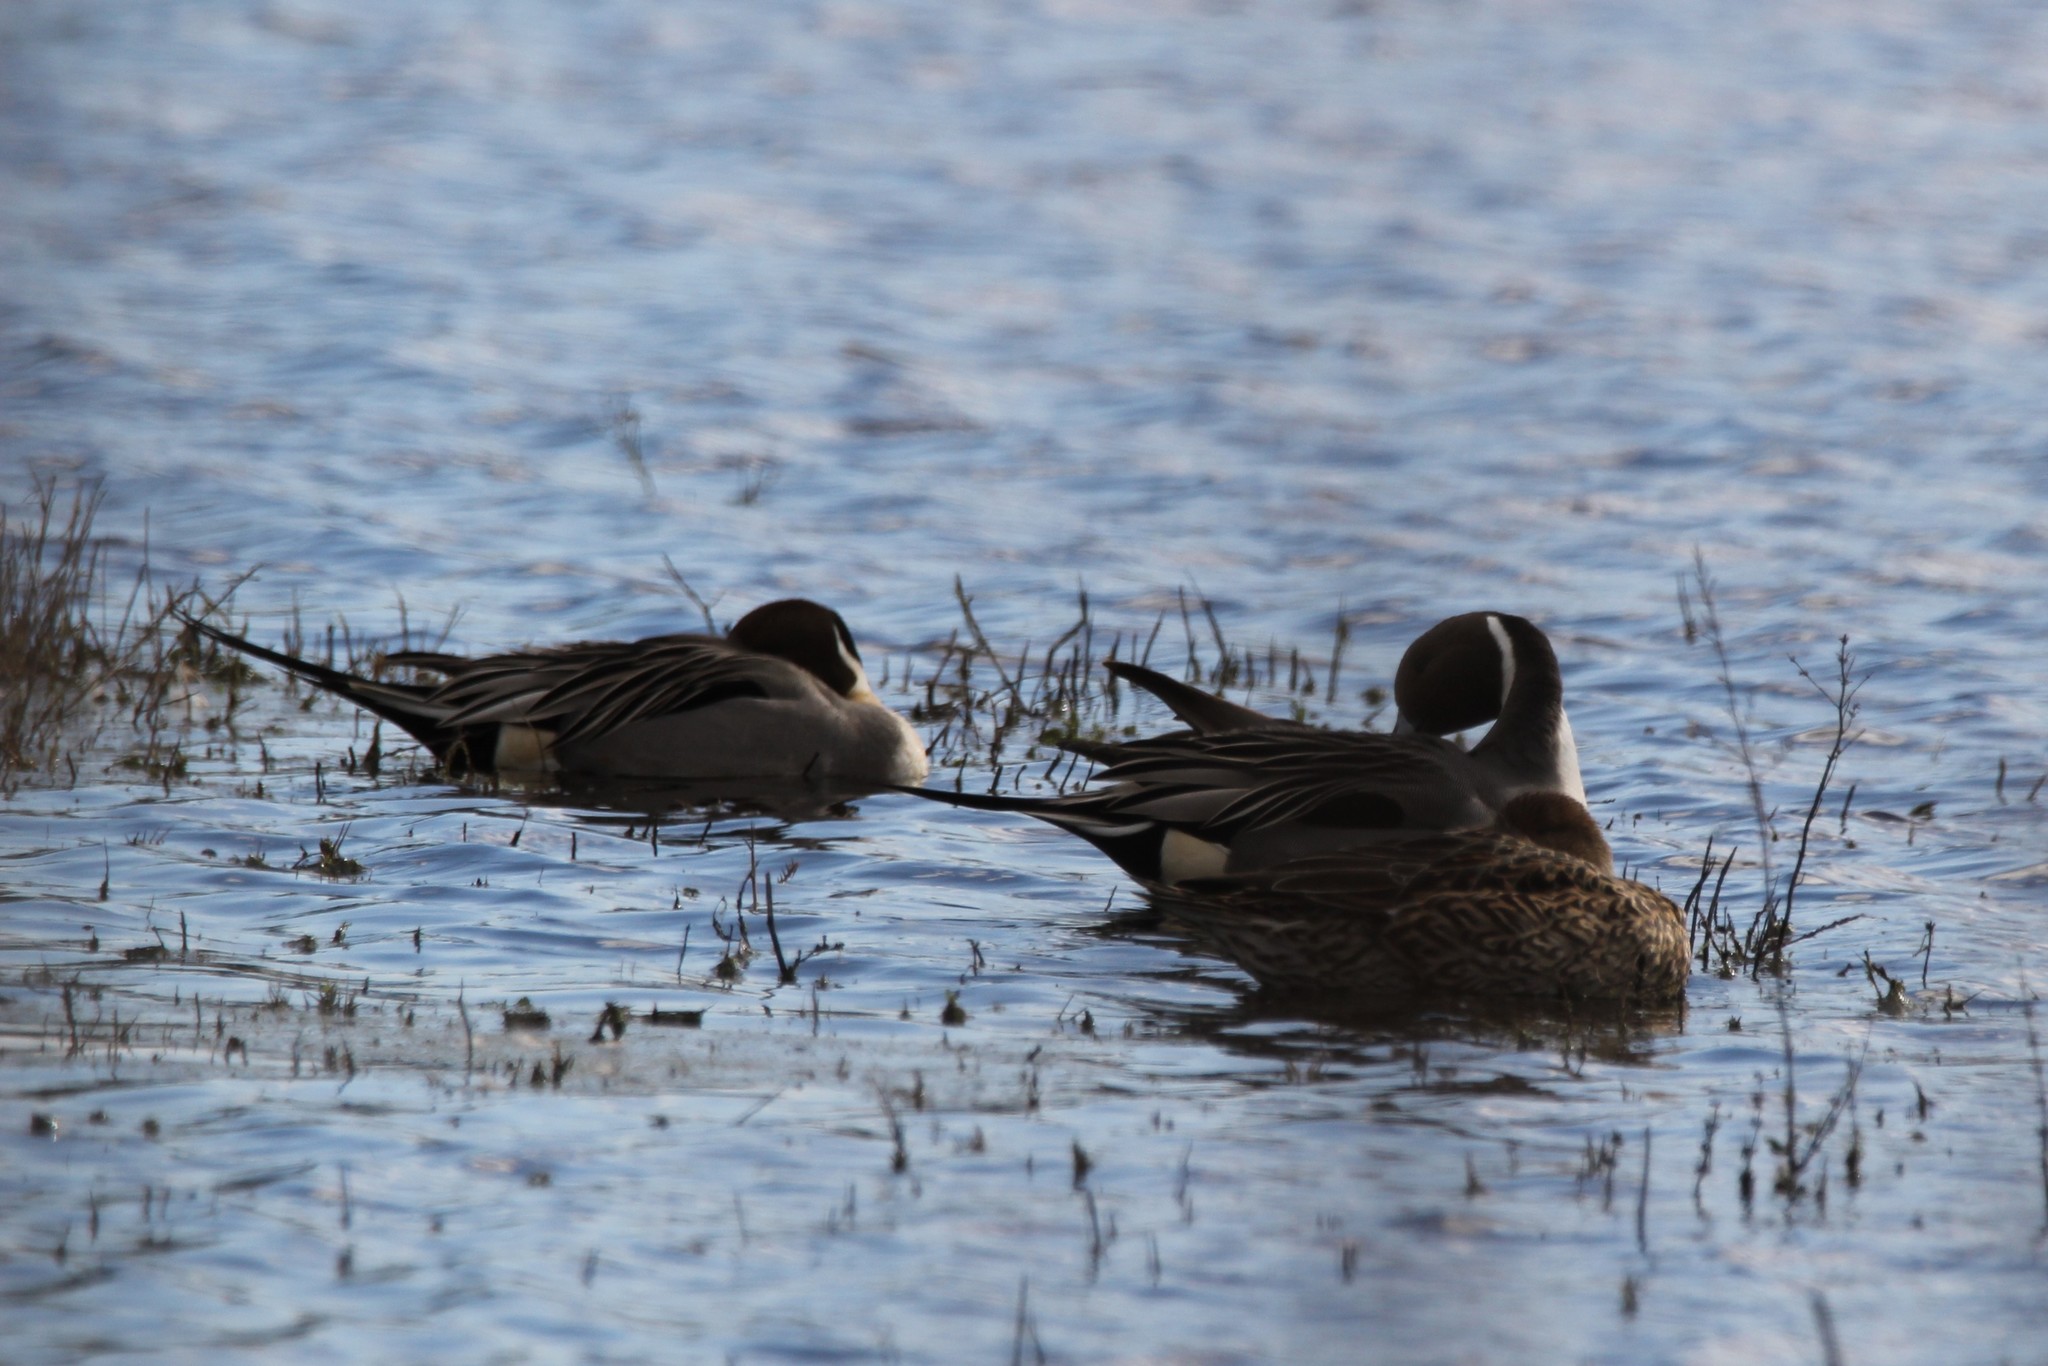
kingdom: Animalia
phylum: Chordata
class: Aves
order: Anseriformes
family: Anatidae
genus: Anas
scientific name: Anas acuta
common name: Northern pintail
